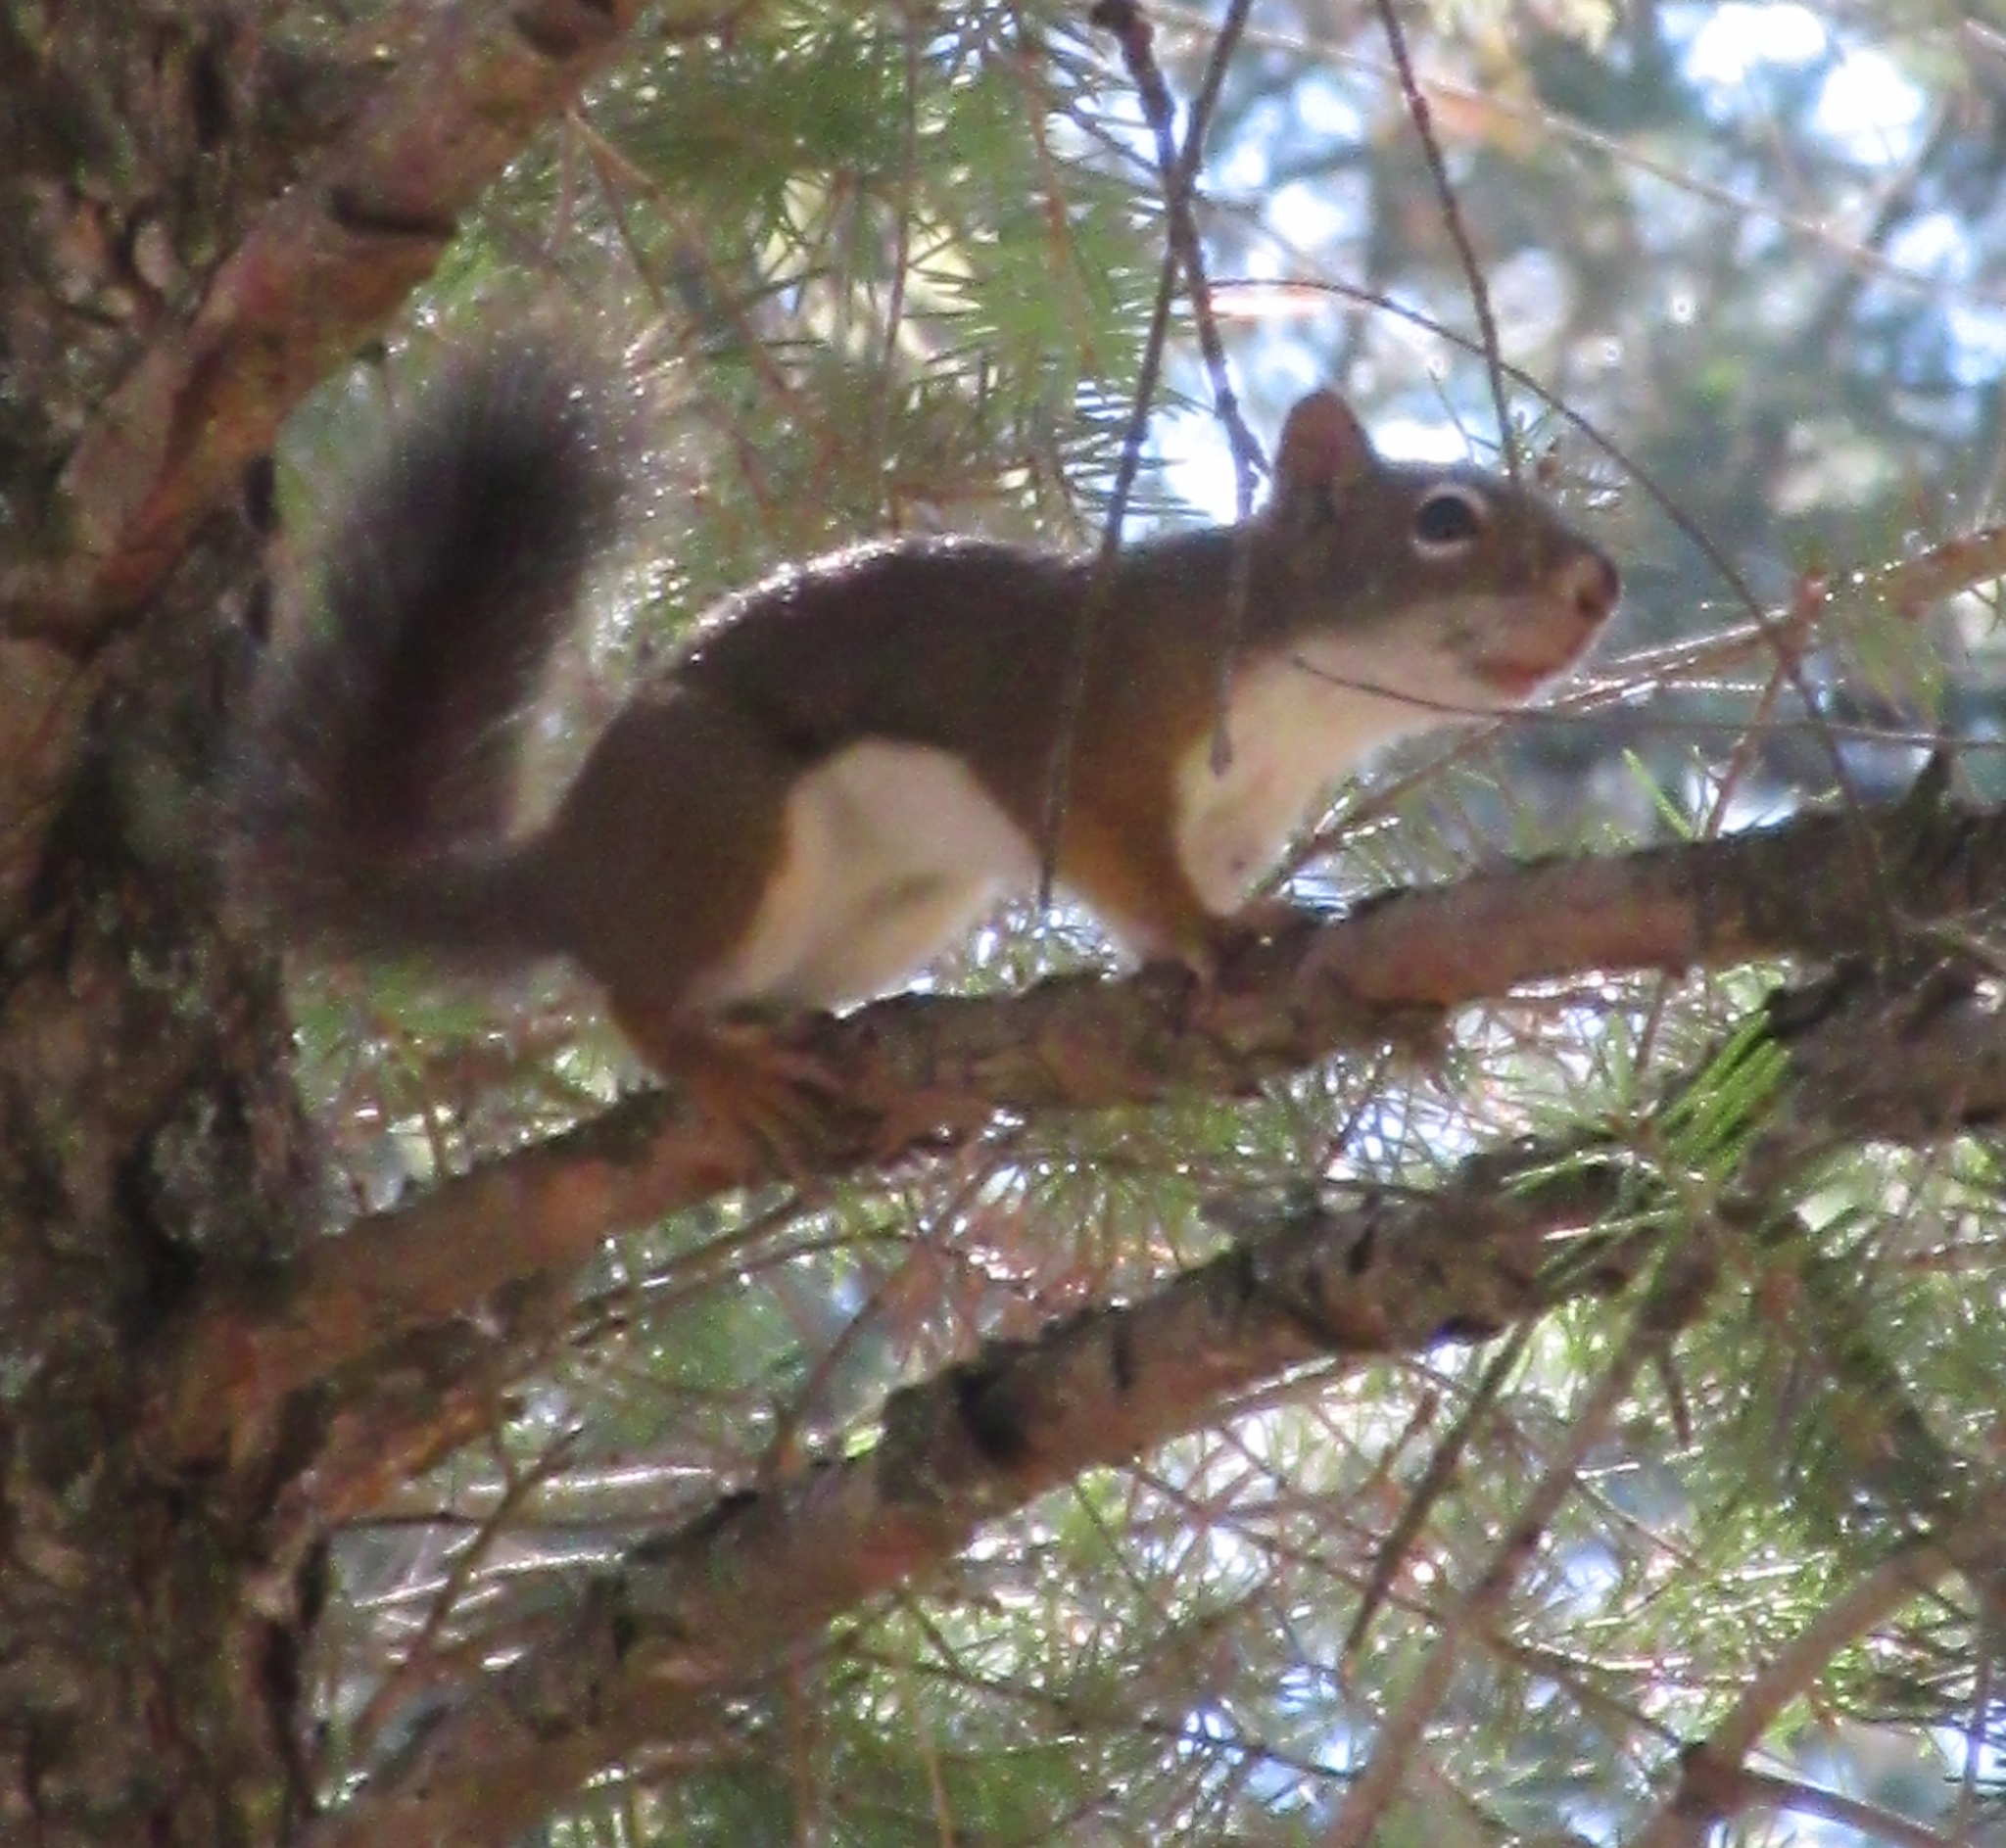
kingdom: Animalia
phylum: Chordata
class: Mammalia
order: Rodentia
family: Sciuridae
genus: Tamiasciurus
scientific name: Tamiasciurus hudsonicus
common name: Red squirrel
